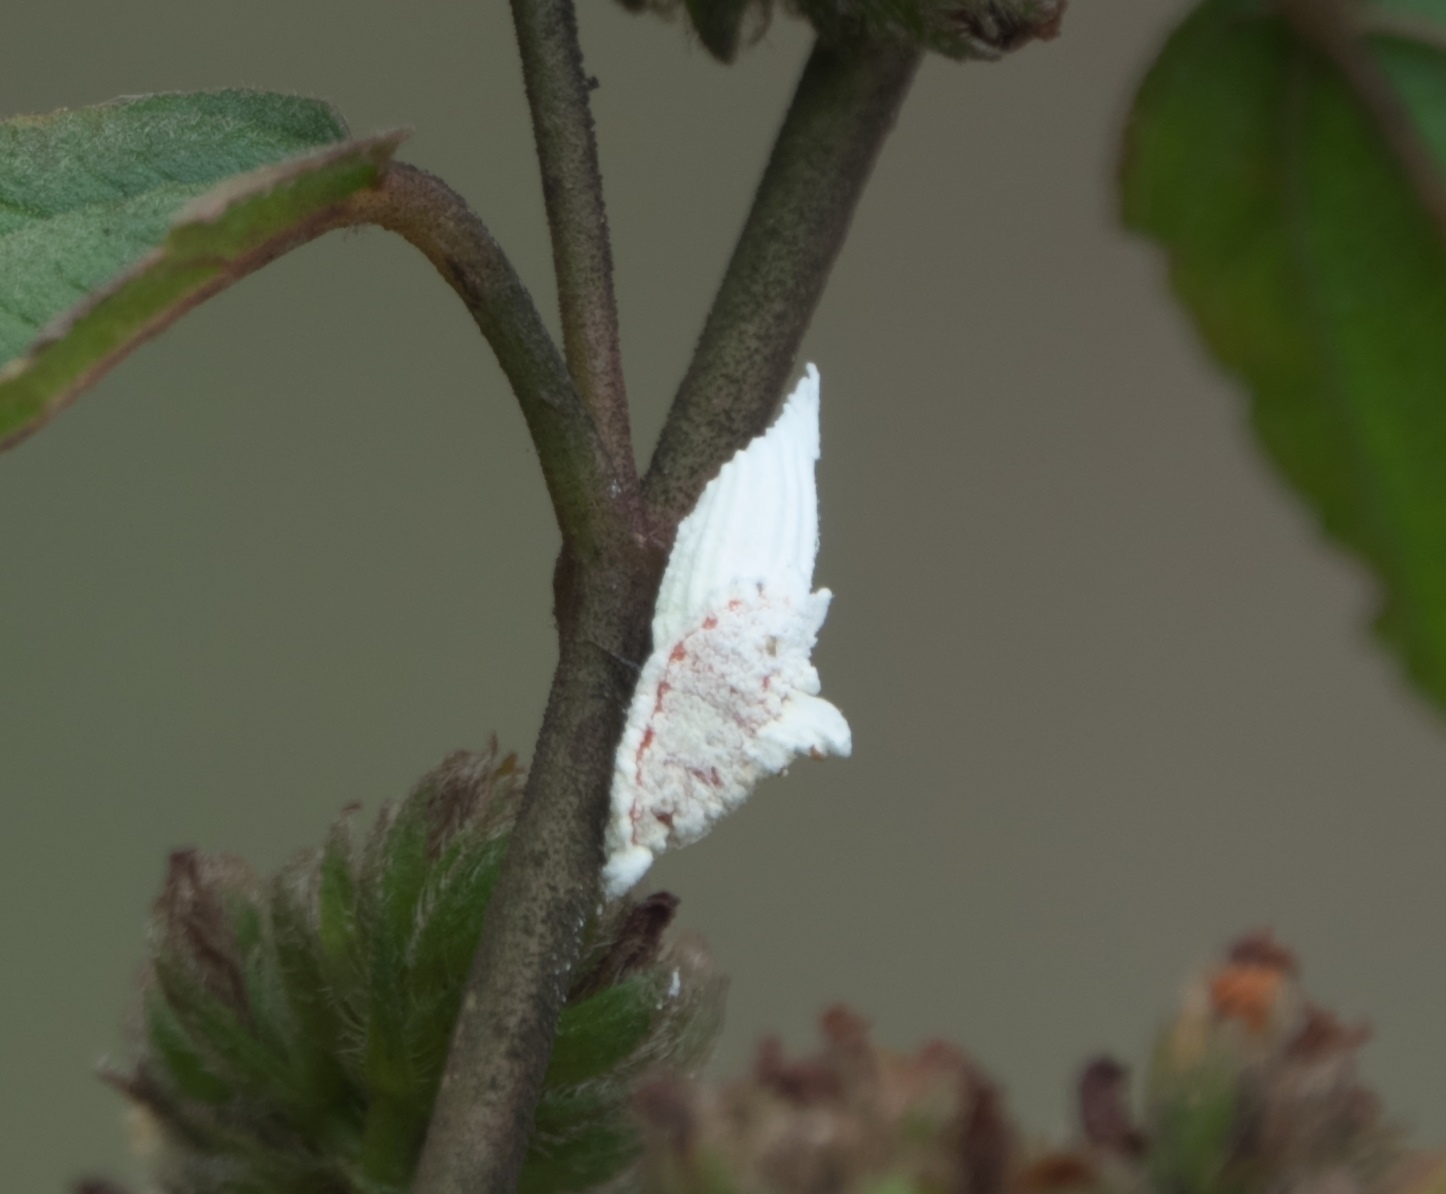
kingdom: Animalia
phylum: Arthropoda
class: Insecta
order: Hemiptera
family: Margarodidae
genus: Icerya
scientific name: Icerya purchasi
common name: Cottony cushion scale
